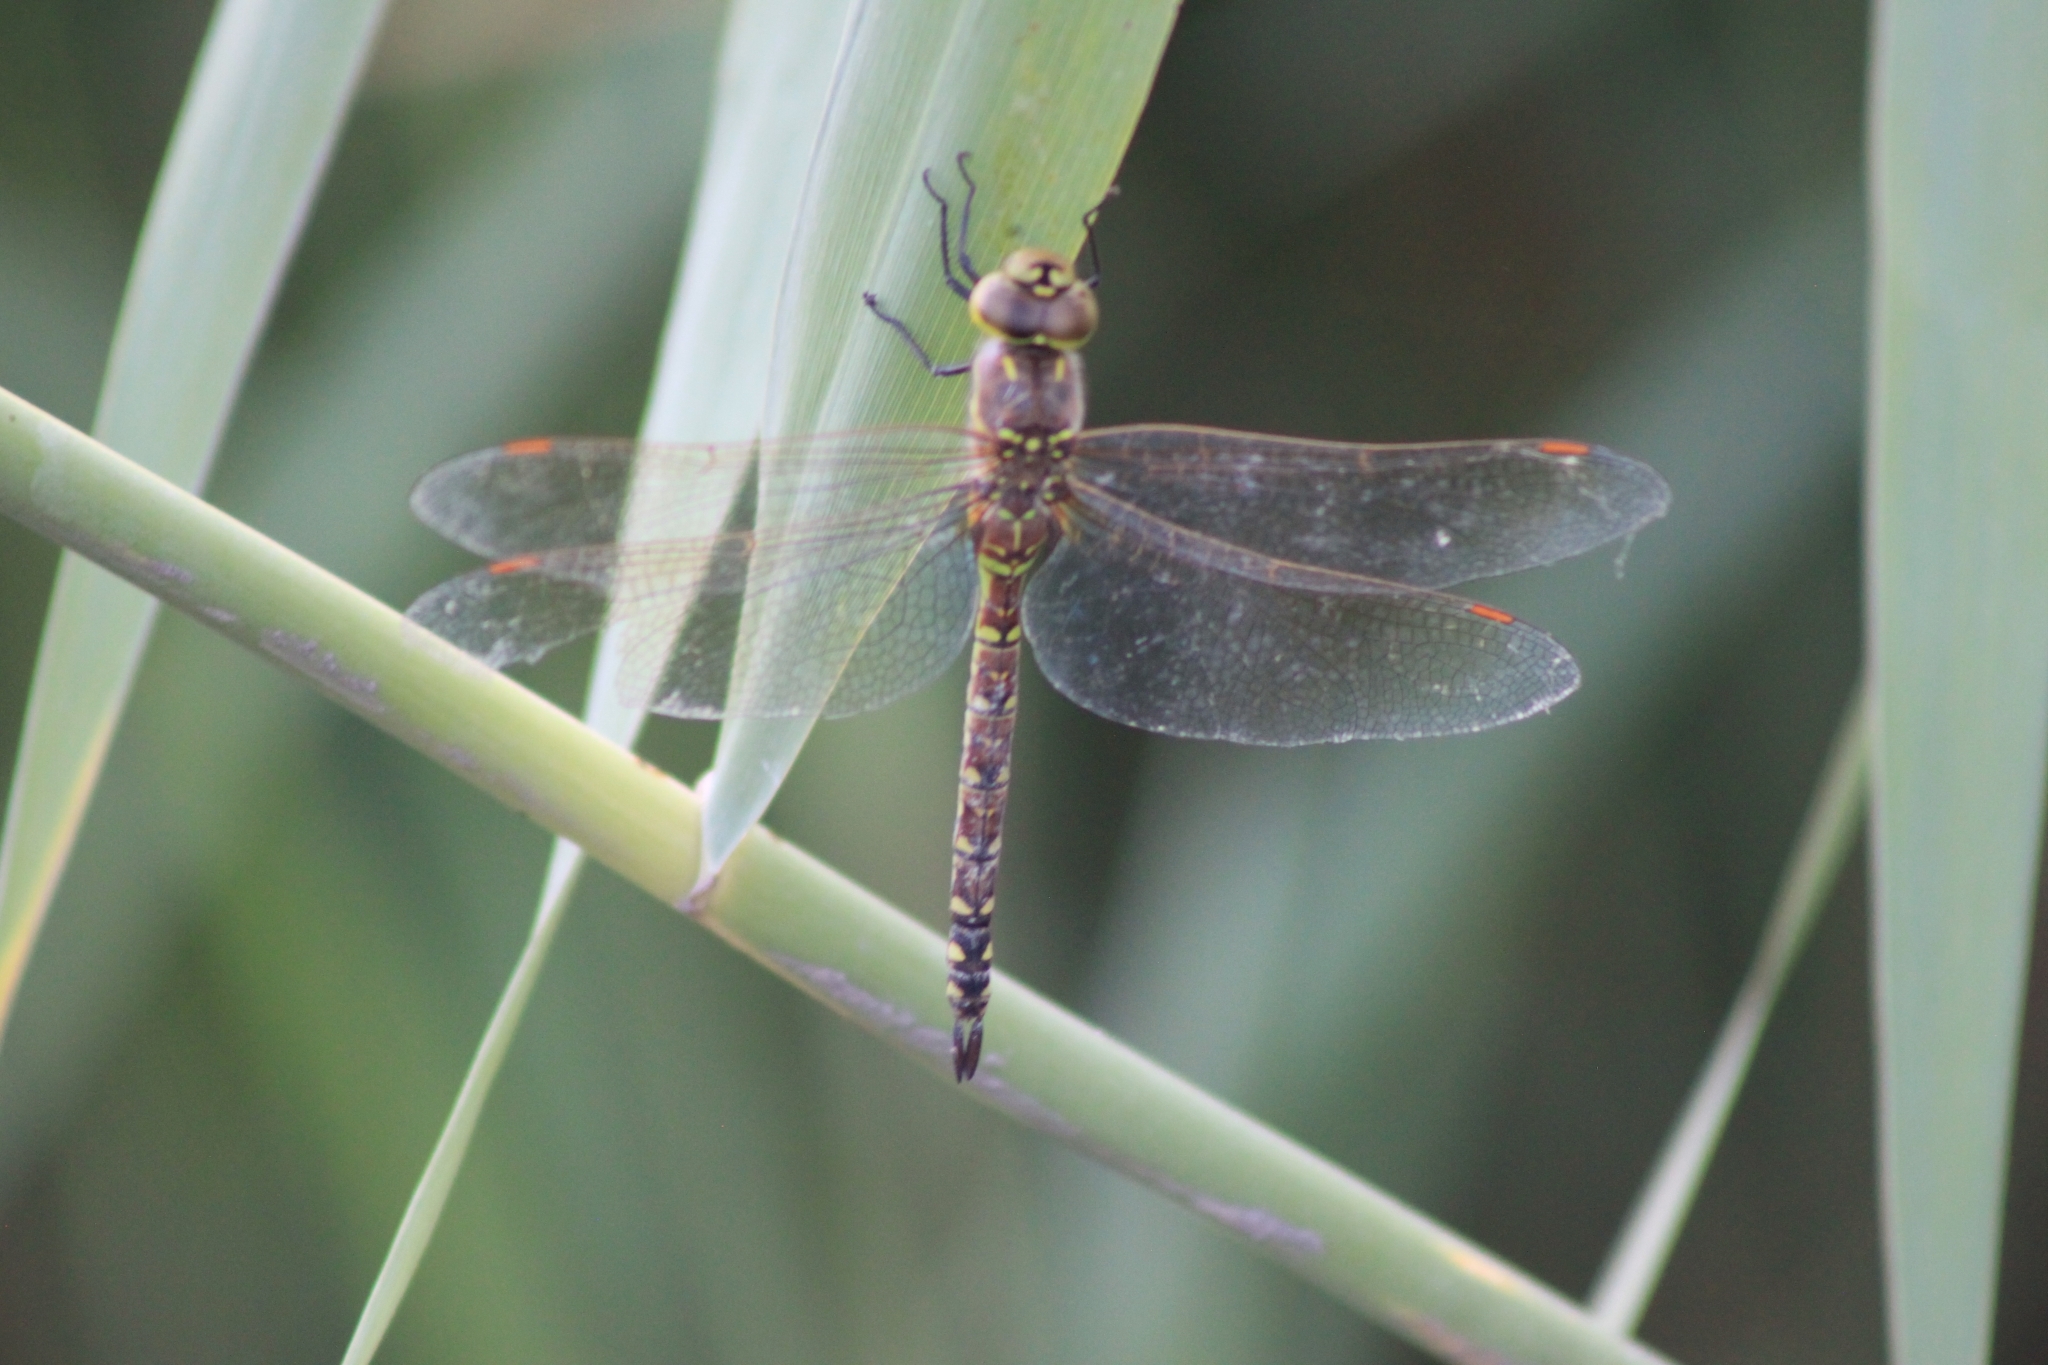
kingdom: Animalia
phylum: Arthropoda
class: Insecta
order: Odonata
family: Aeshnidae
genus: Rhionaeschna
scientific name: Rhionaeschna multicolor
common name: Blue-eyed darner
